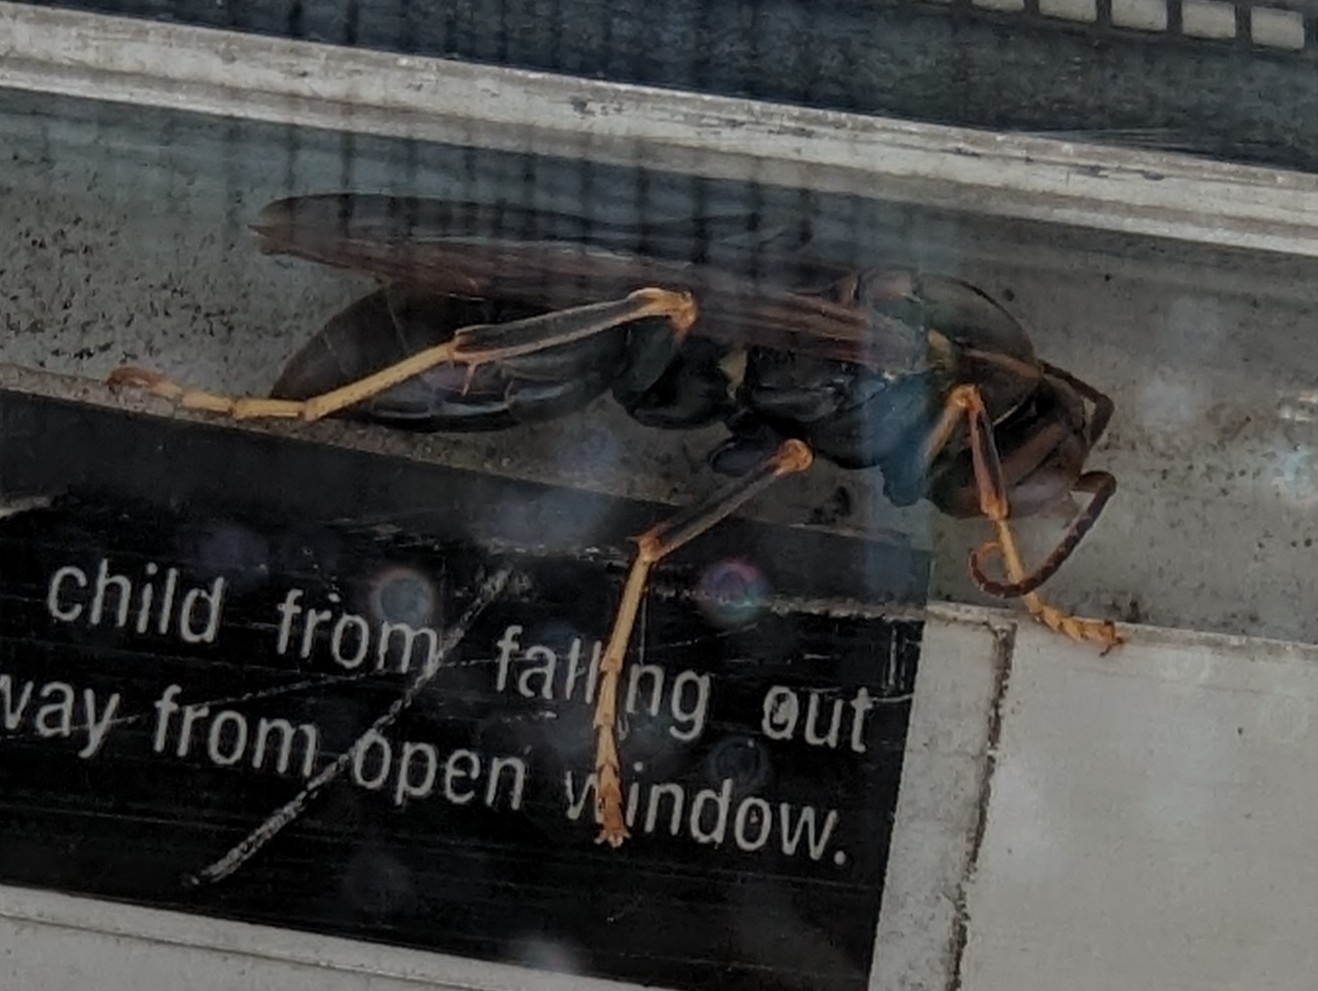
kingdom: Animalia
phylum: Arthropoda
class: Insecta
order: Hymenoptera
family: Eumenidae
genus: Polistes
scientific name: Polistes metricus
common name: Metric paper wasp
